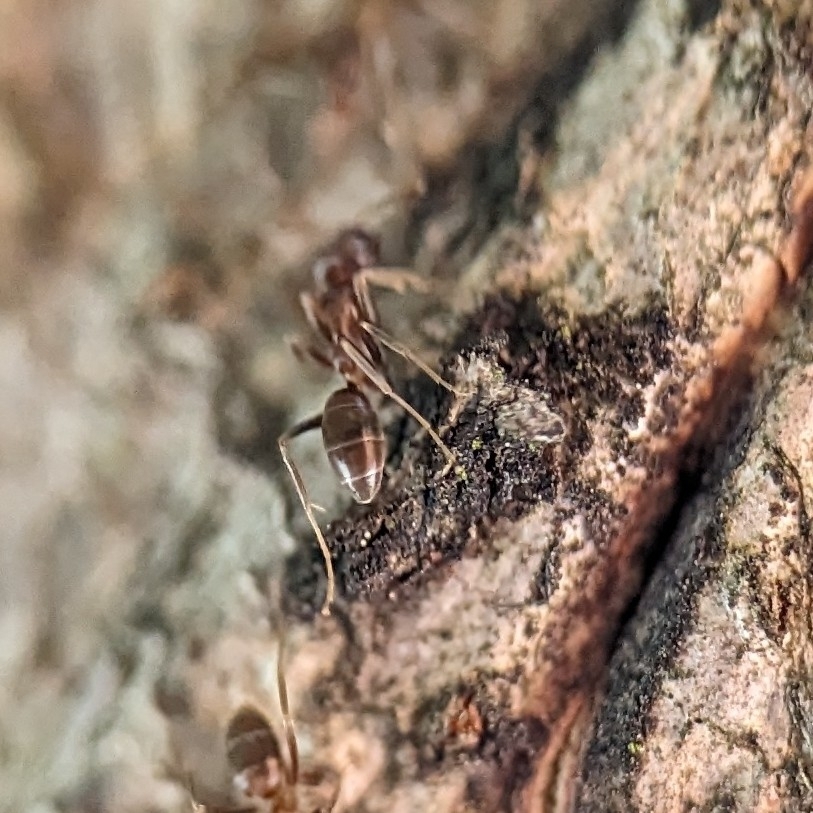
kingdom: Animalia
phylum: Arthropoda
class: Insecta
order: Hymenoptera
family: Formicidae
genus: Linepithema
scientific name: Linepithema humile
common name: Argentine ant
